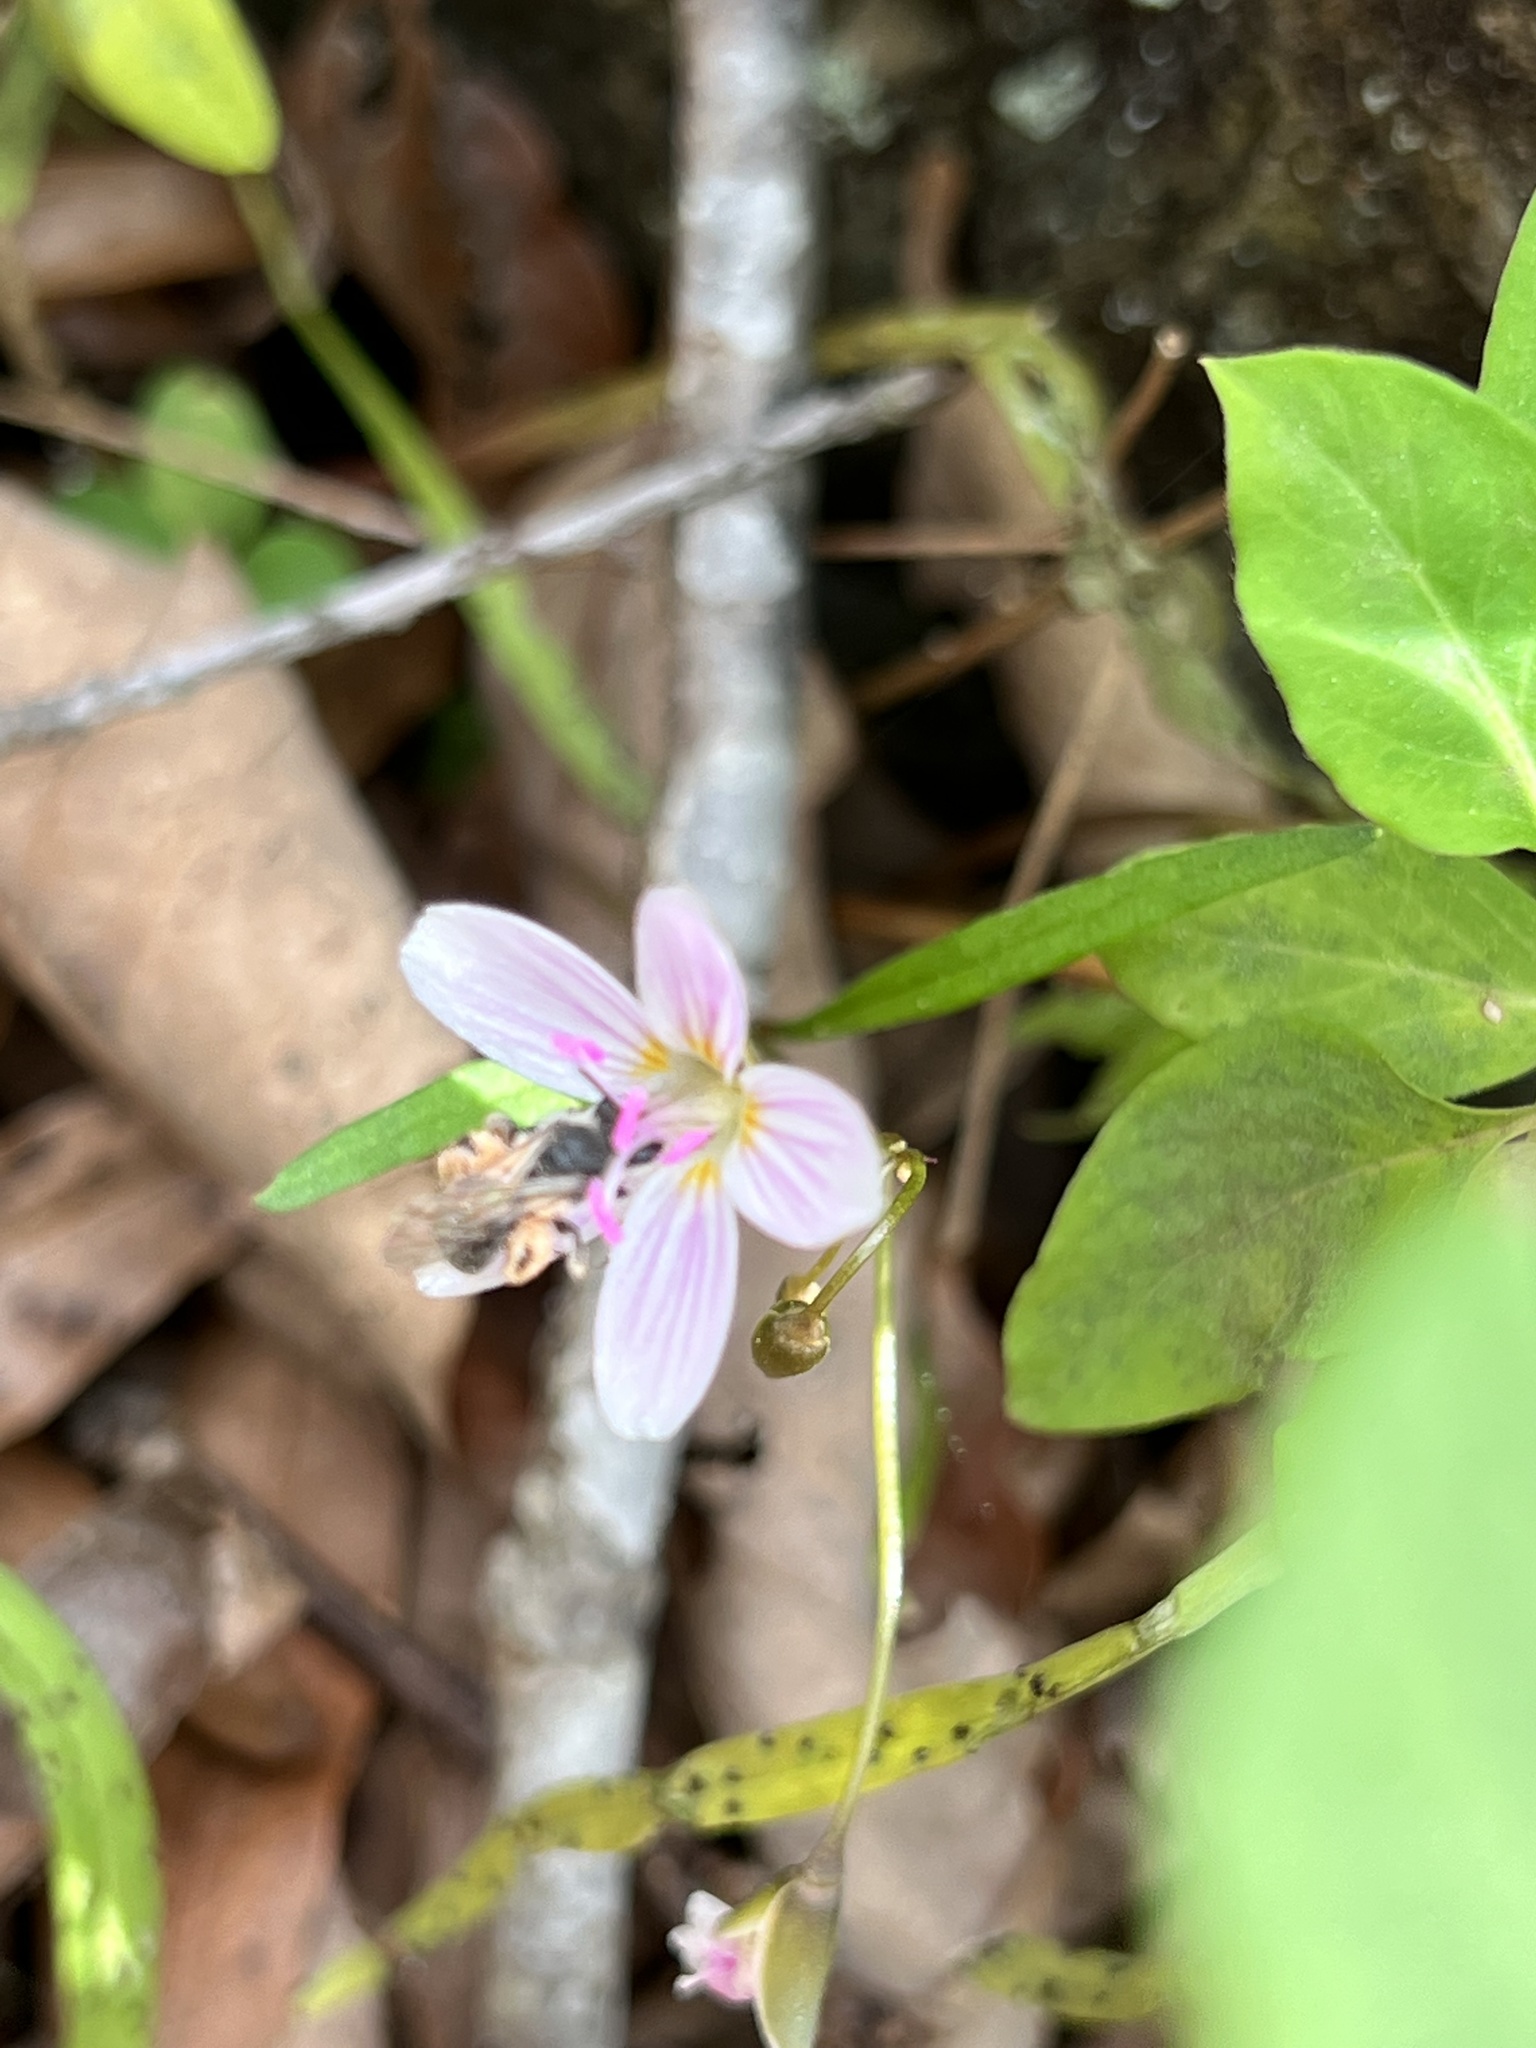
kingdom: Animalia
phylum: Arthropoda
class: Insecta
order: Hymenoptera
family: Andrenidae
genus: Andrena
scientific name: Andrena erigeniae
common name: Spring beauty miner
